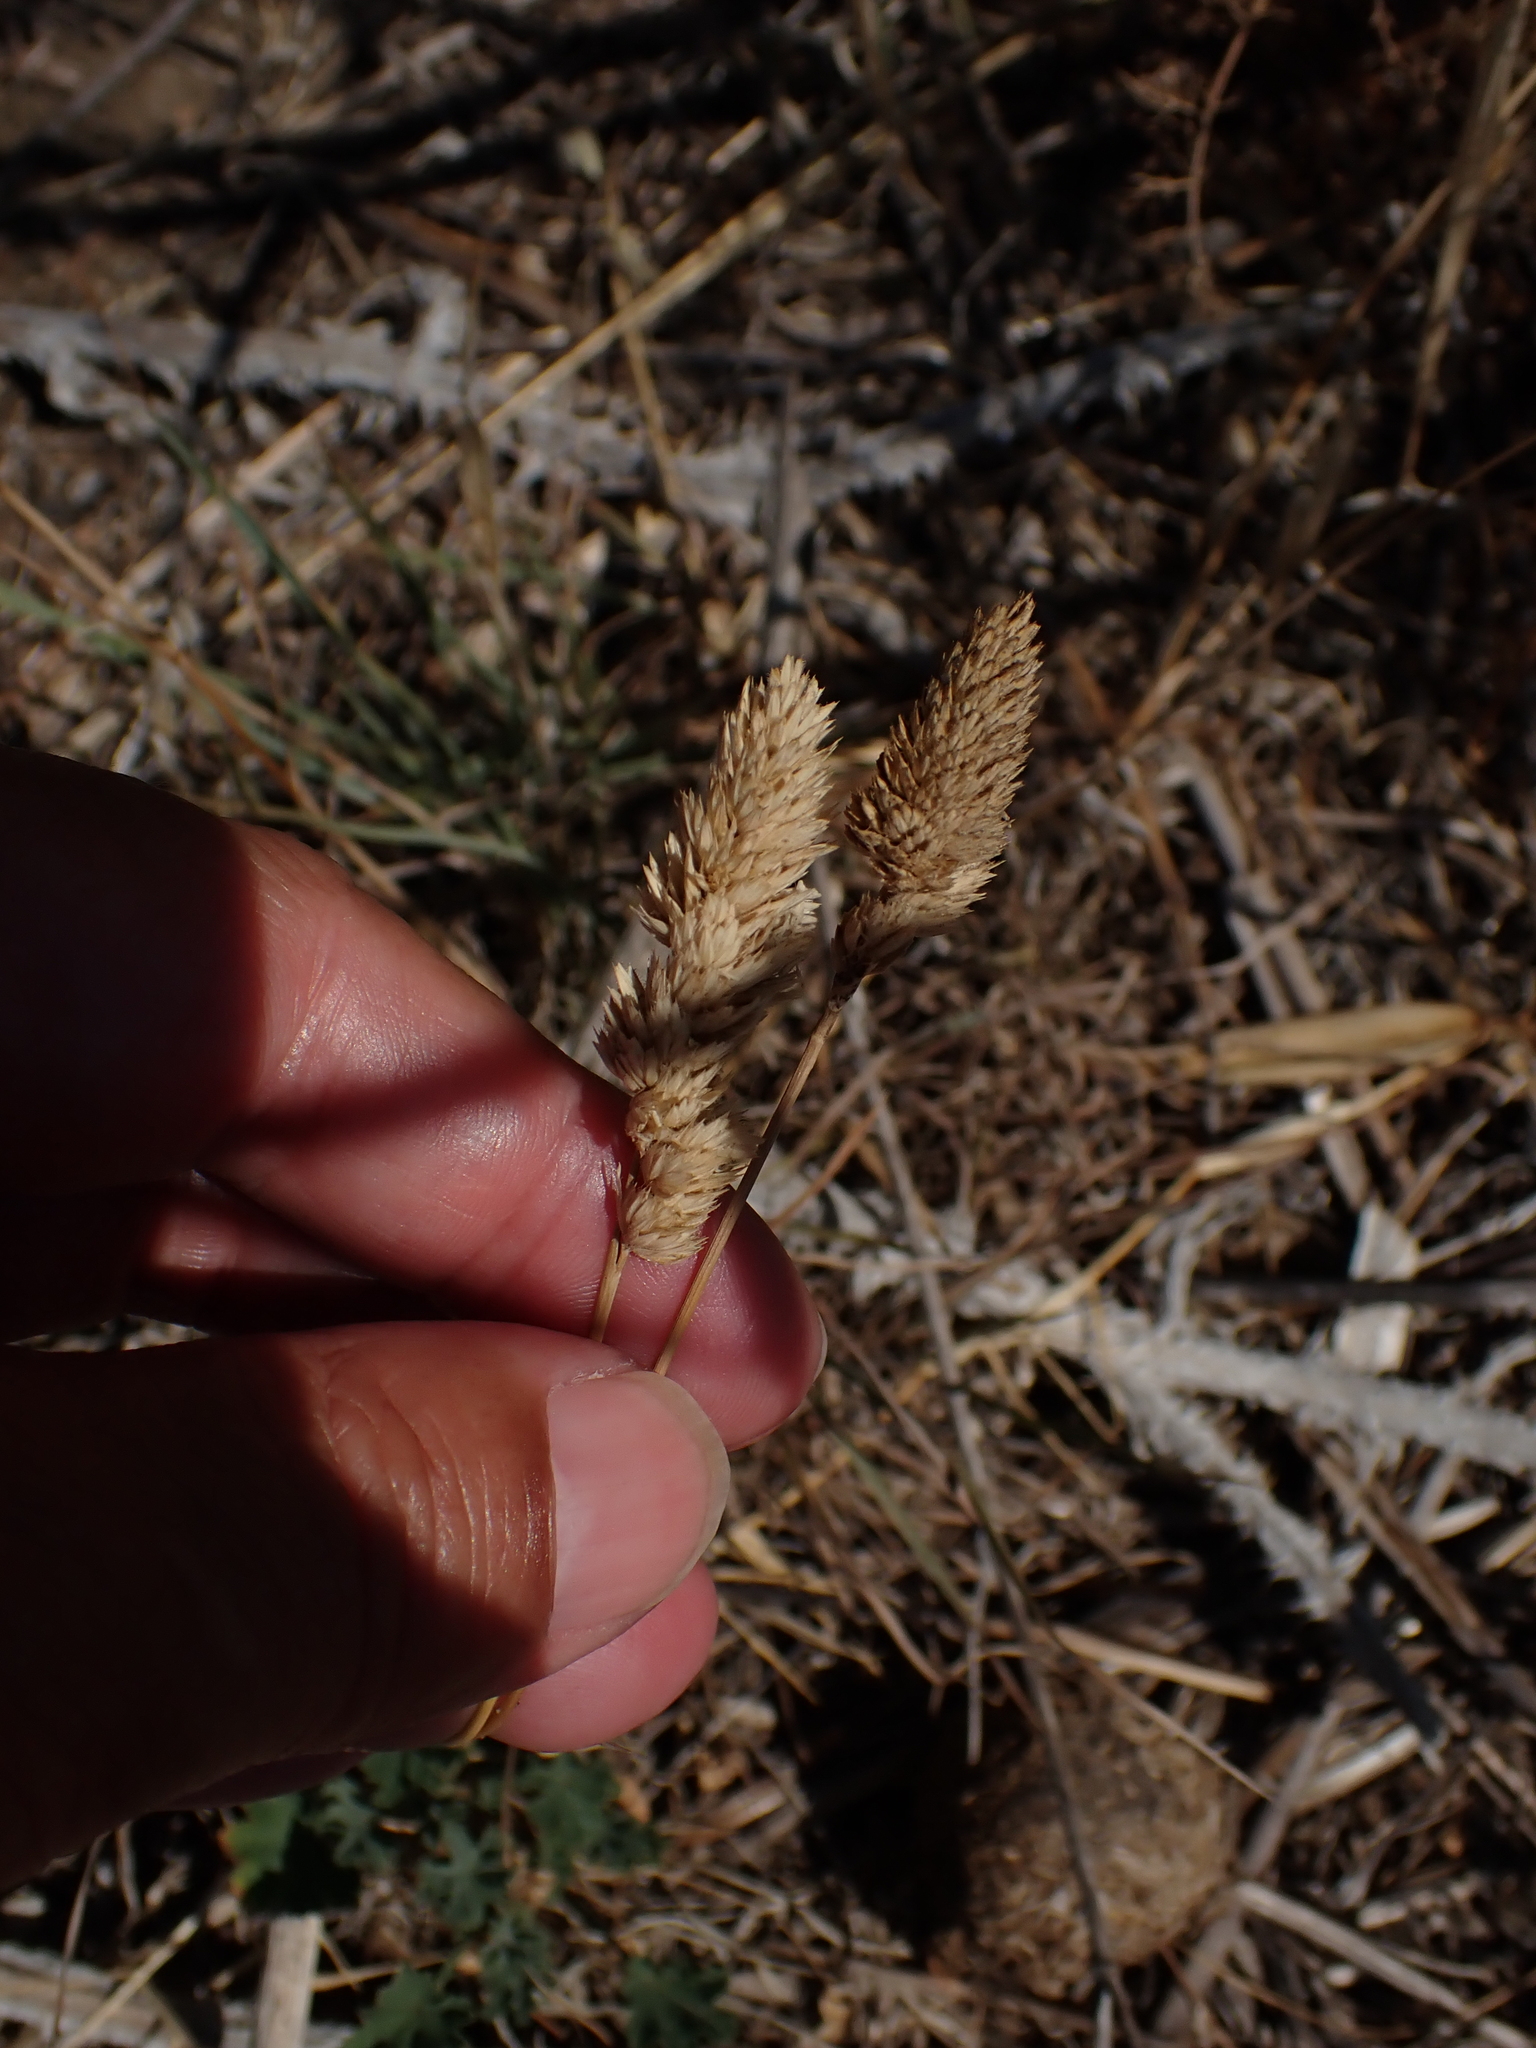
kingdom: Plantae
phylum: Tracheophyta
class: Liliopsida
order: Poales
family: Poaceae
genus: Dactylis
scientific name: Dactylis glomerata
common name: Orchardgrass
